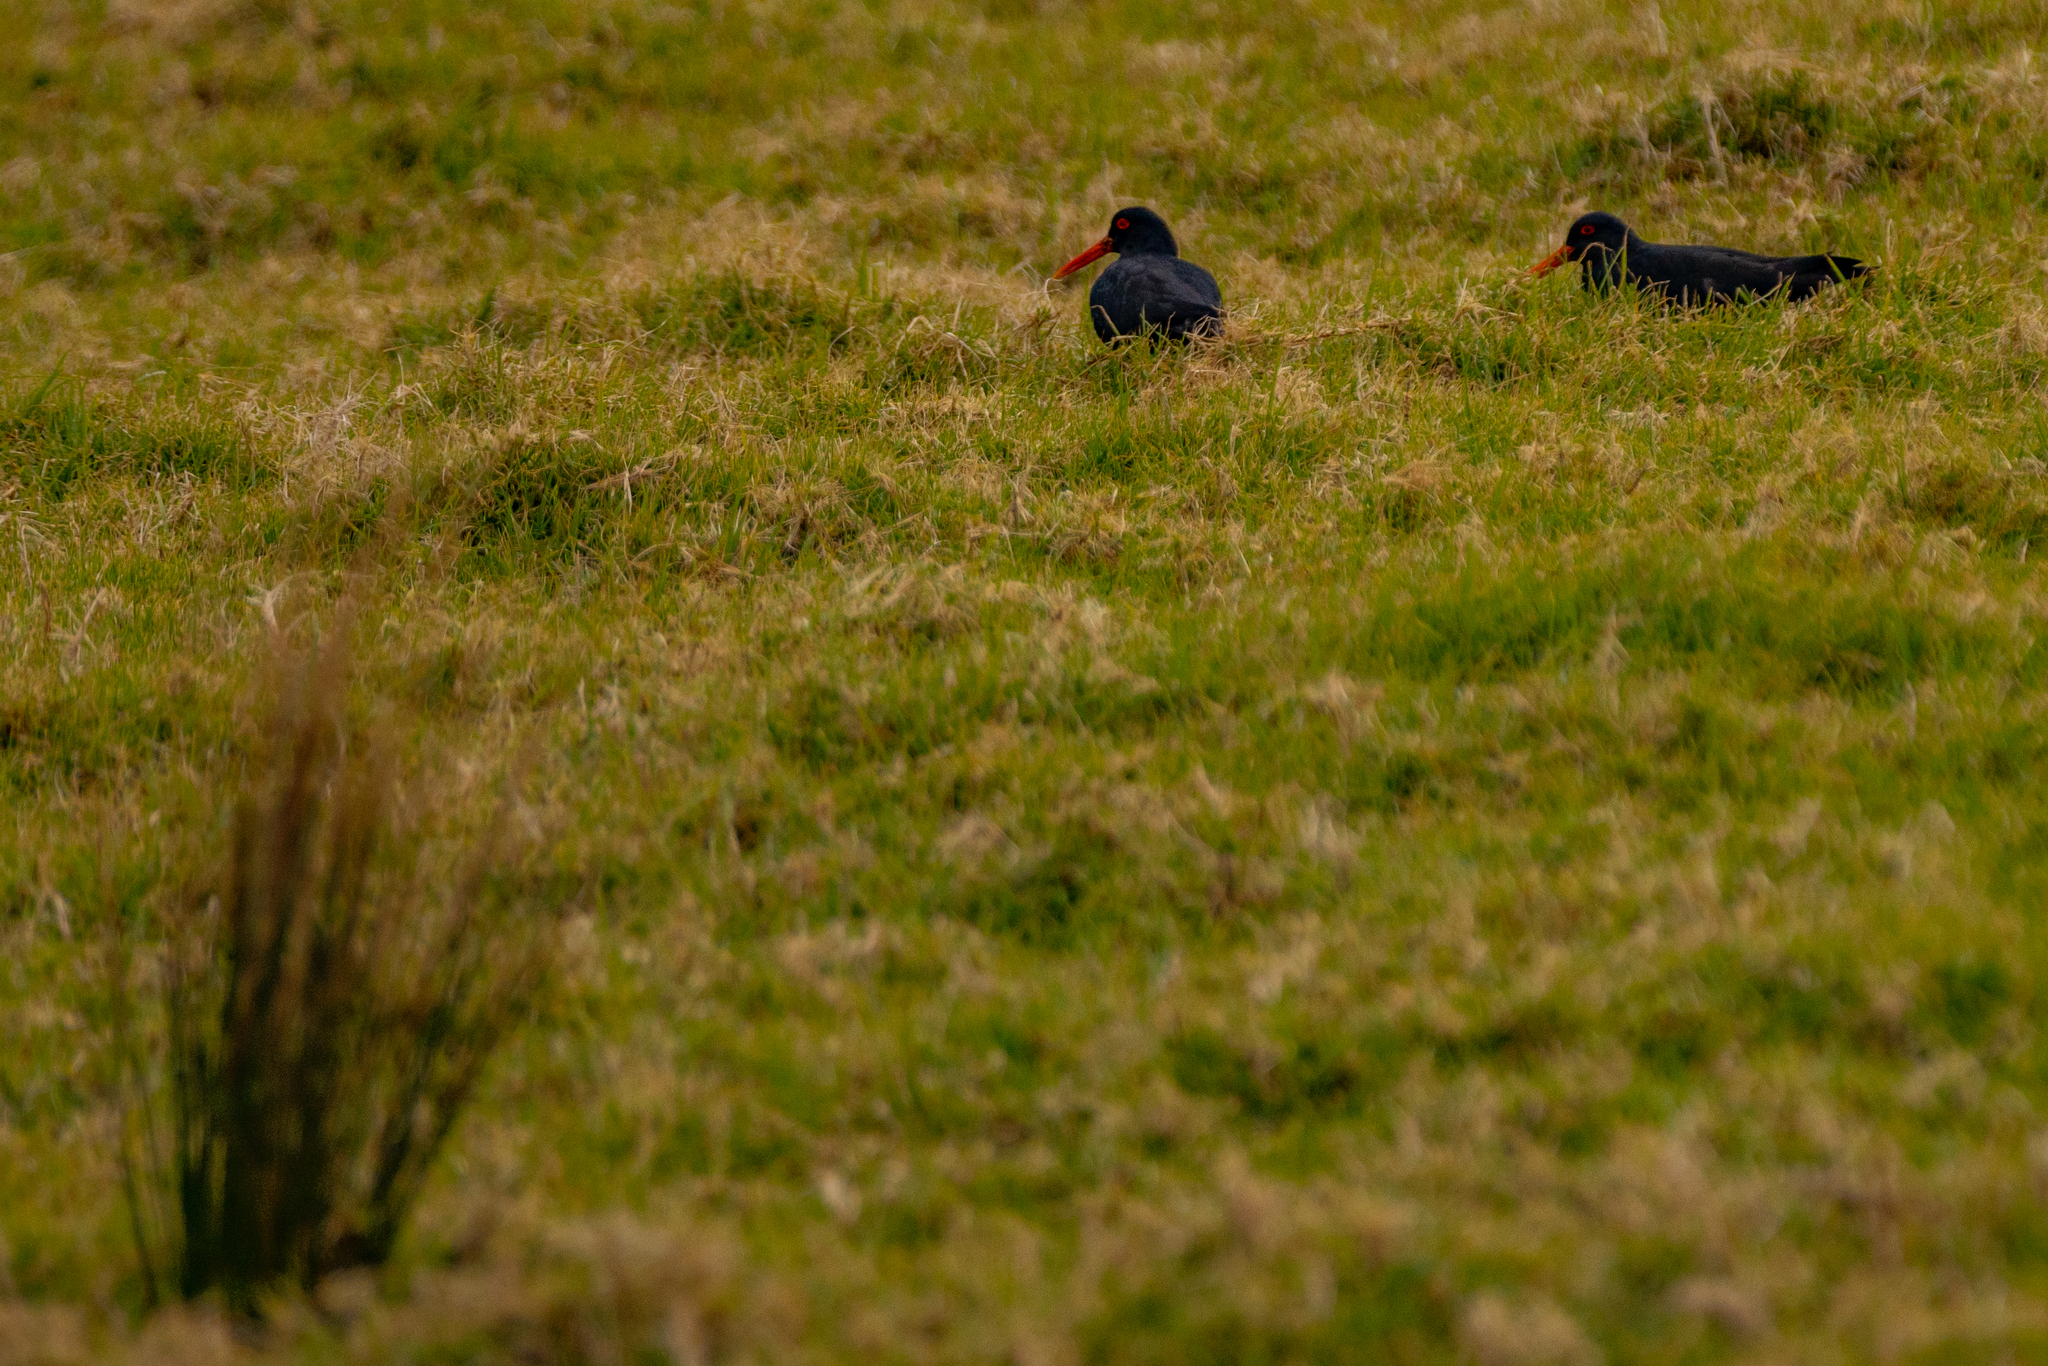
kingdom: Animalia
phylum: Chordata
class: Aves
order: Charadriiformes
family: Haematopodidae
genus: Haematopus
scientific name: Haematopus unicolor
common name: Variable oystercatcher
